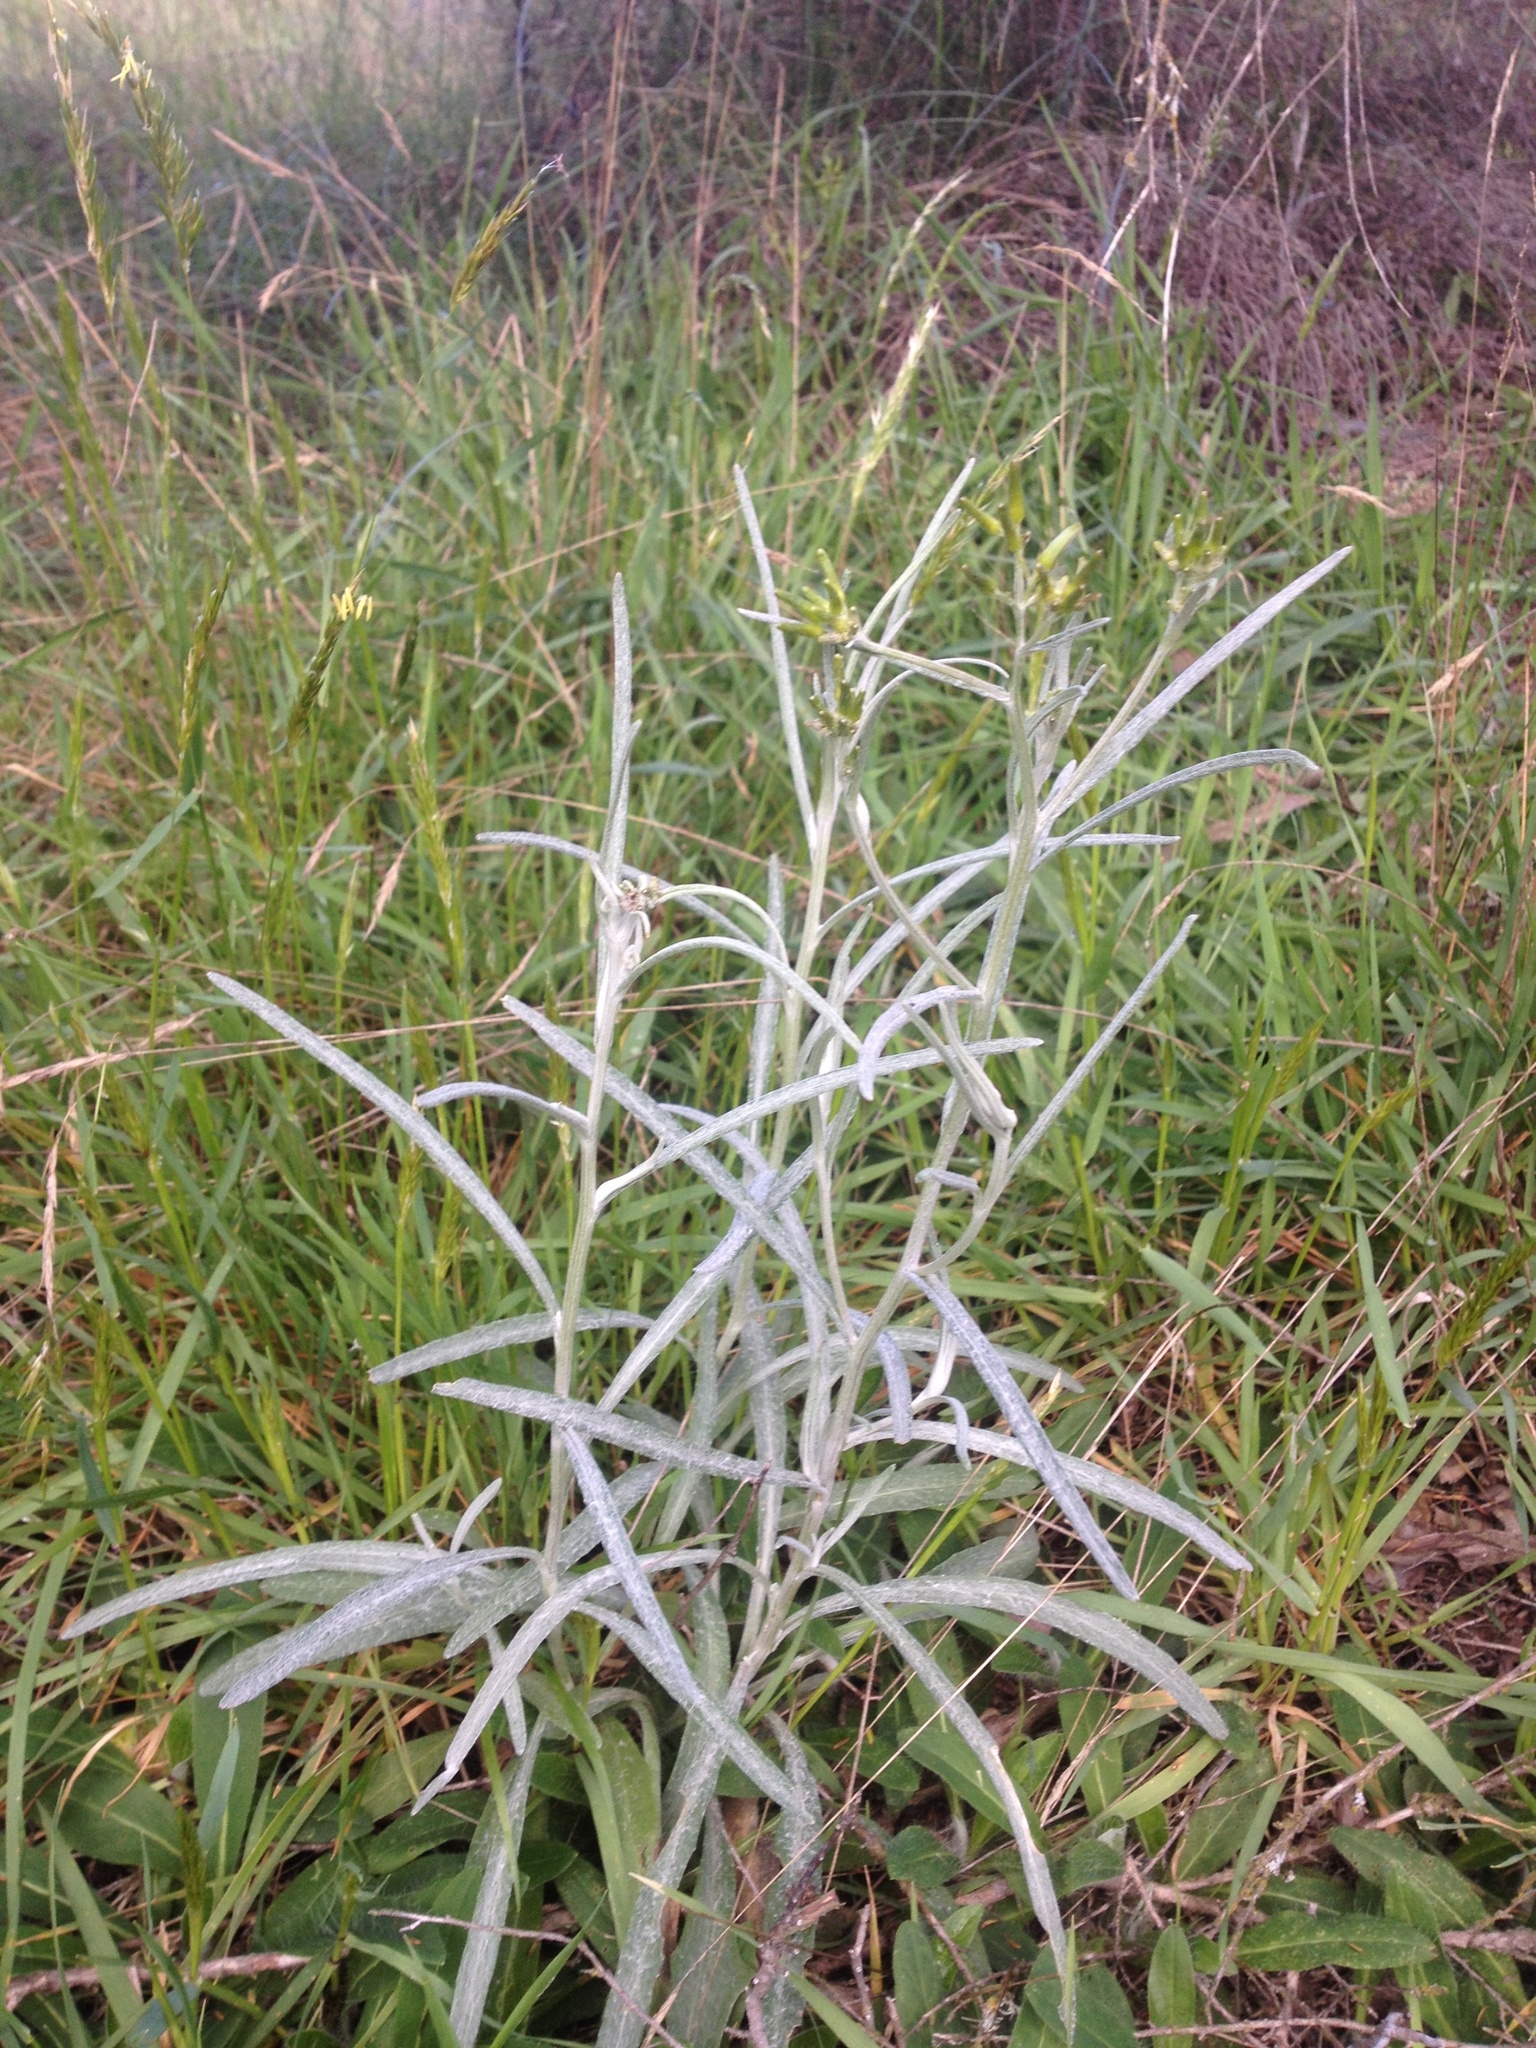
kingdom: Plantae
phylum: Tracheophyta
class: Magnoliopsida
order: Asterales
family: Asteraceae
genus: Senecio
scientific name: Senecio quadridentatus
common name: Cotton fireweed
